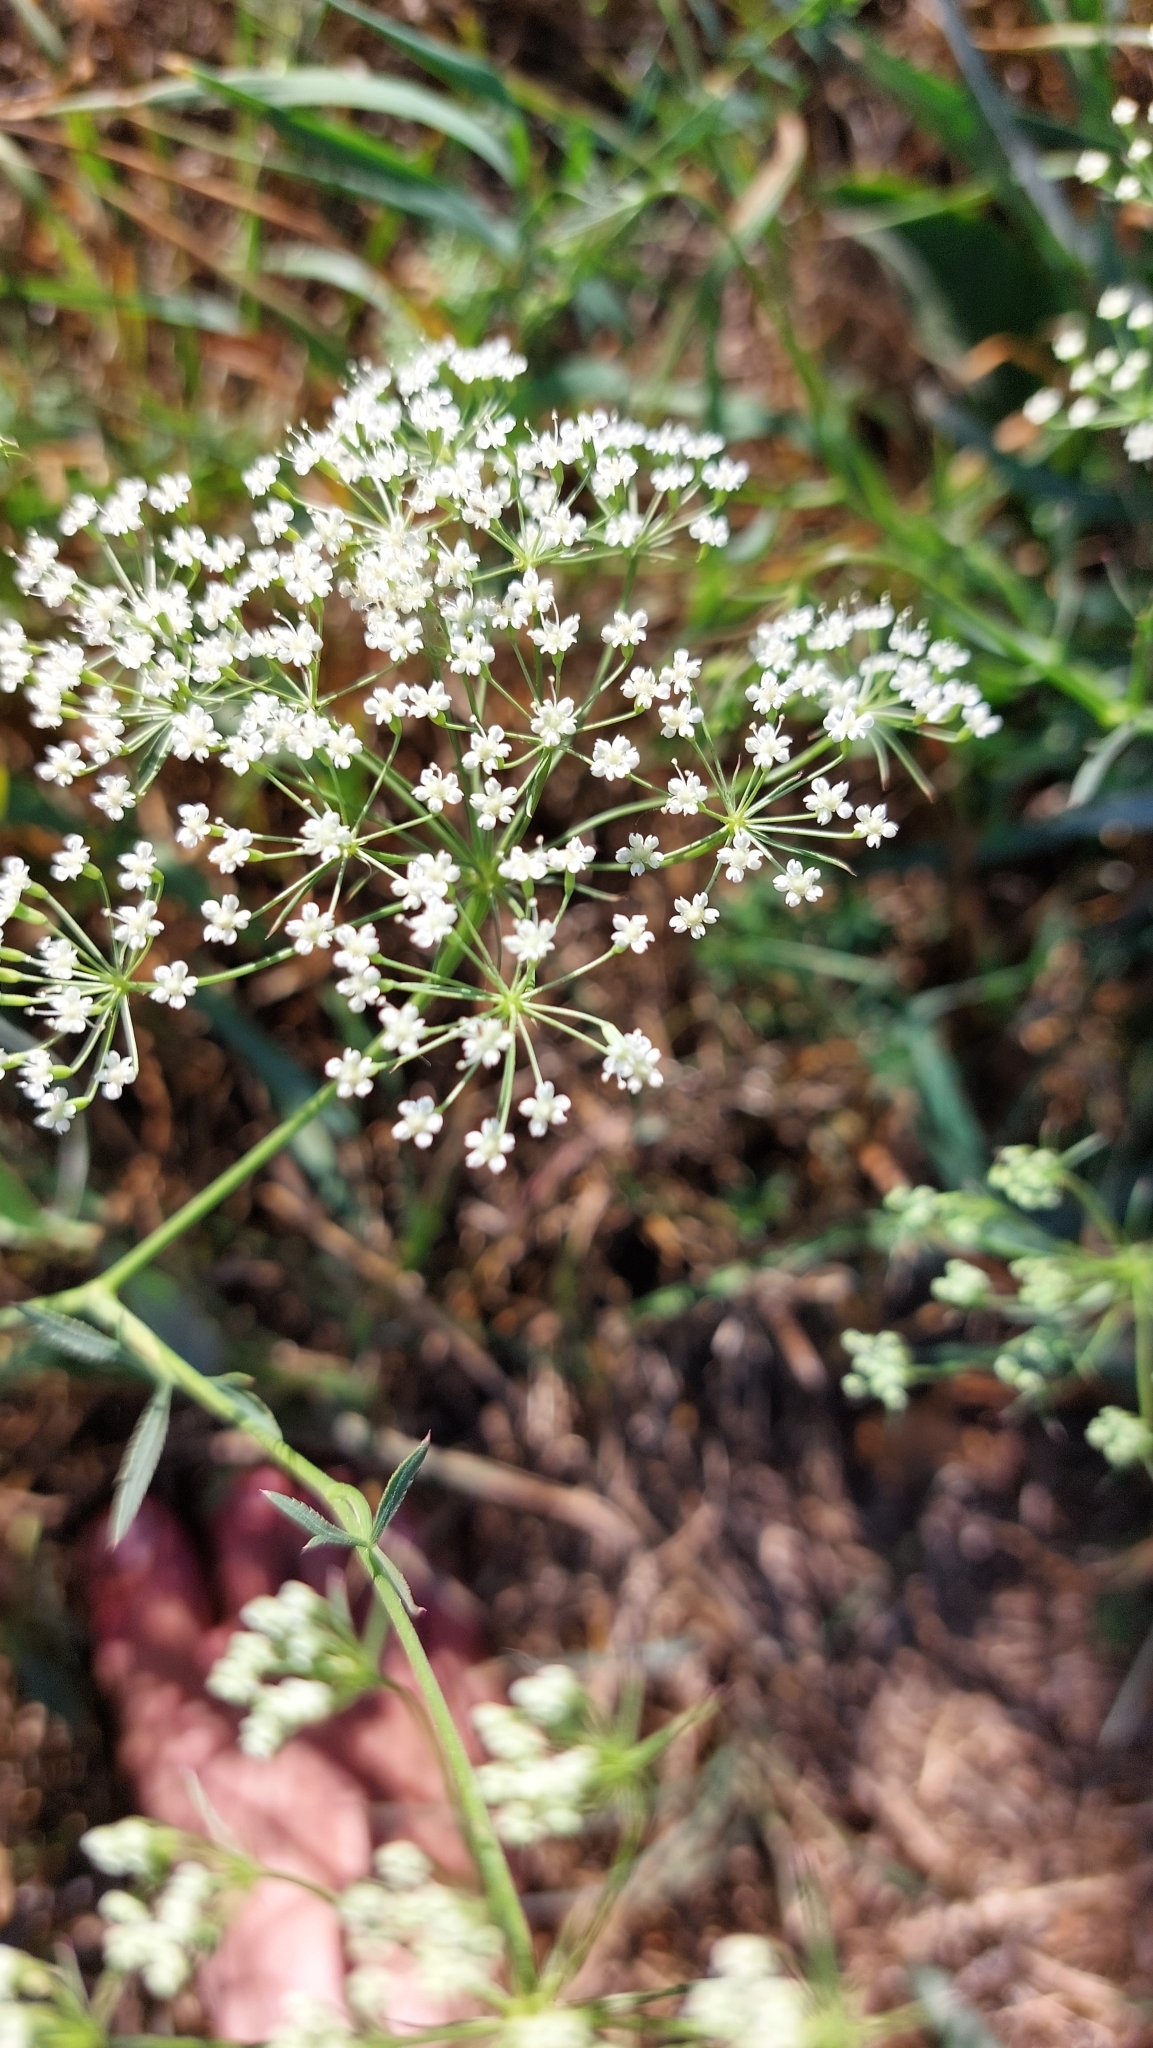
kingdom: Plantae
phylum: Tracheophyta
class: Magnoliopsida
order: Apiales
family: Apiaceae
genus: Falcaria
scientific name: Falcaria vulgaris
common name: Longleaf
